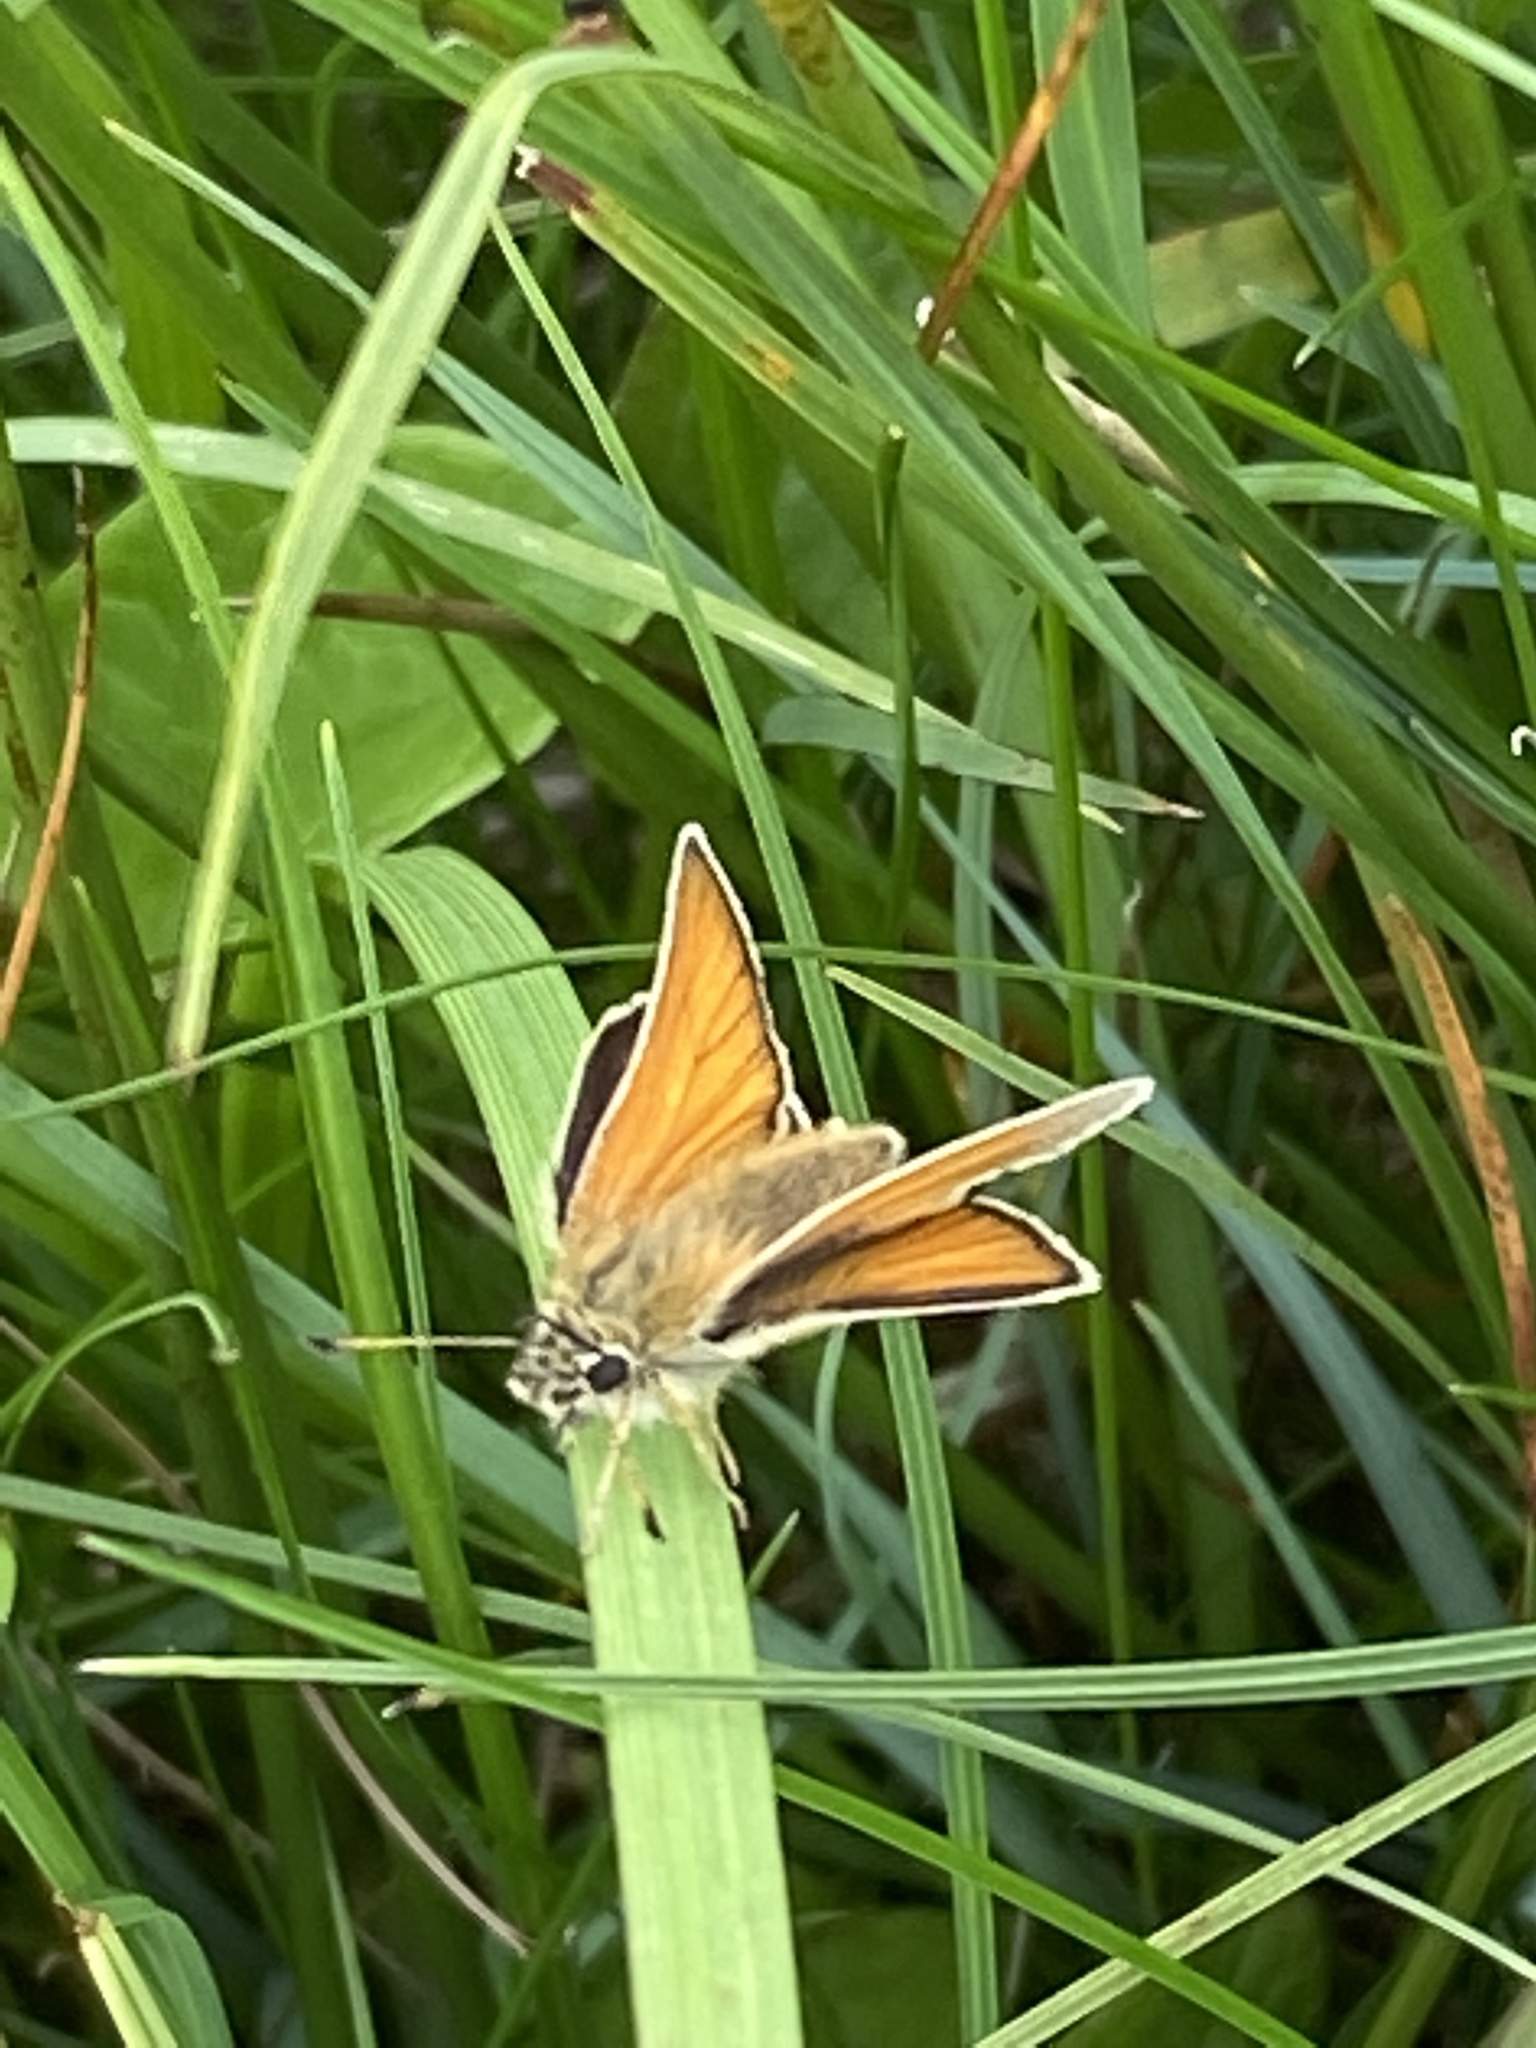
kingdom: Animalia
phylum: Arthropoda
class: Insecta
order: Lepidoptera
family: Hesperiidae
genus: Thymelicus
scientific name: Thymelicus sylvestris
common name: Small skipper
